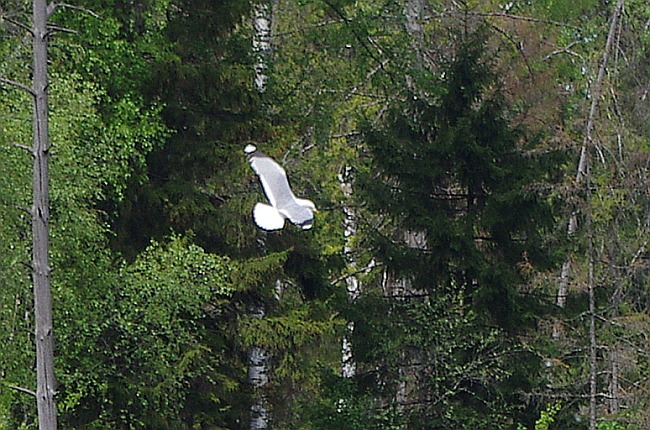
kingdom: Animalia
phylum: Chordata
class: Aves
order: Charadriiformes
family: Laridae
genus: Larus
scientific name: Larus canus
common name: Mew gull
